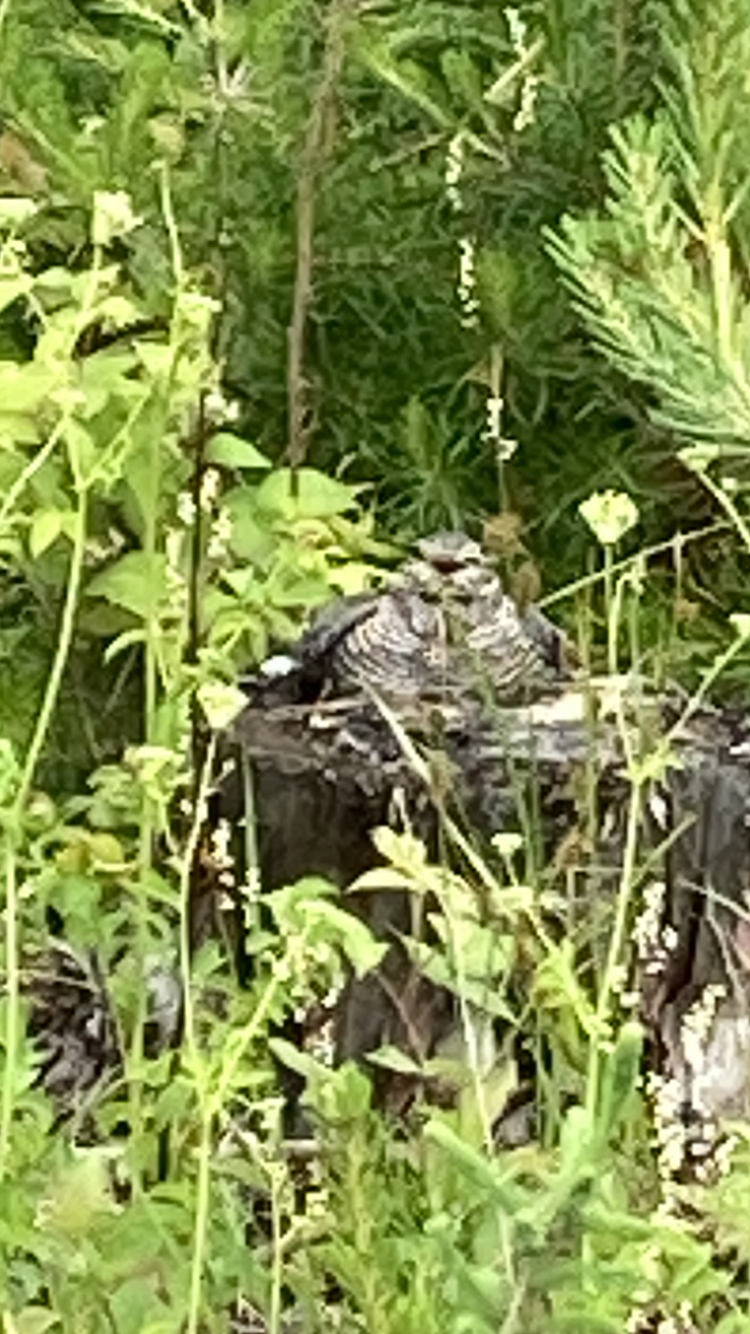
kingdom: Animalia
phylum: Chordata
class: Aves
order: Caprimulgiformes
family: Caprimulgidae
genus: Chordeiles
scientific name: Chordeiles minor
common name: Common nighthawk
